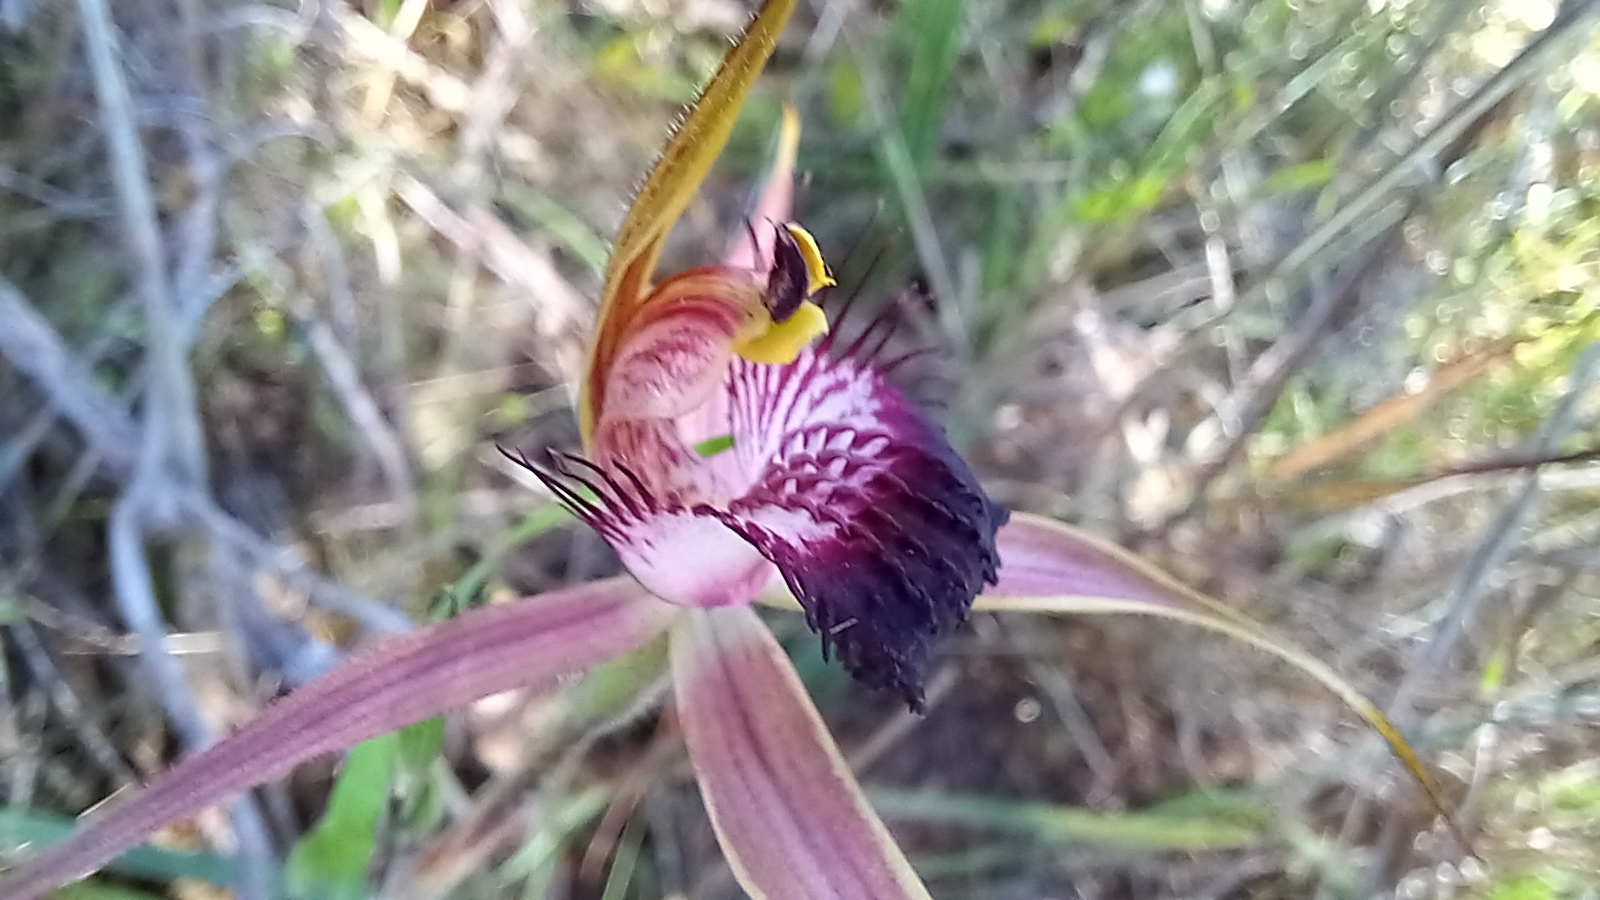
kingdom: Plantae
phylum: Tracheophyta
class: Liliopsida
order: Asparagales
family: Orchidaceae
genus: Caladenia
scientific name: Caladenia arenicola
